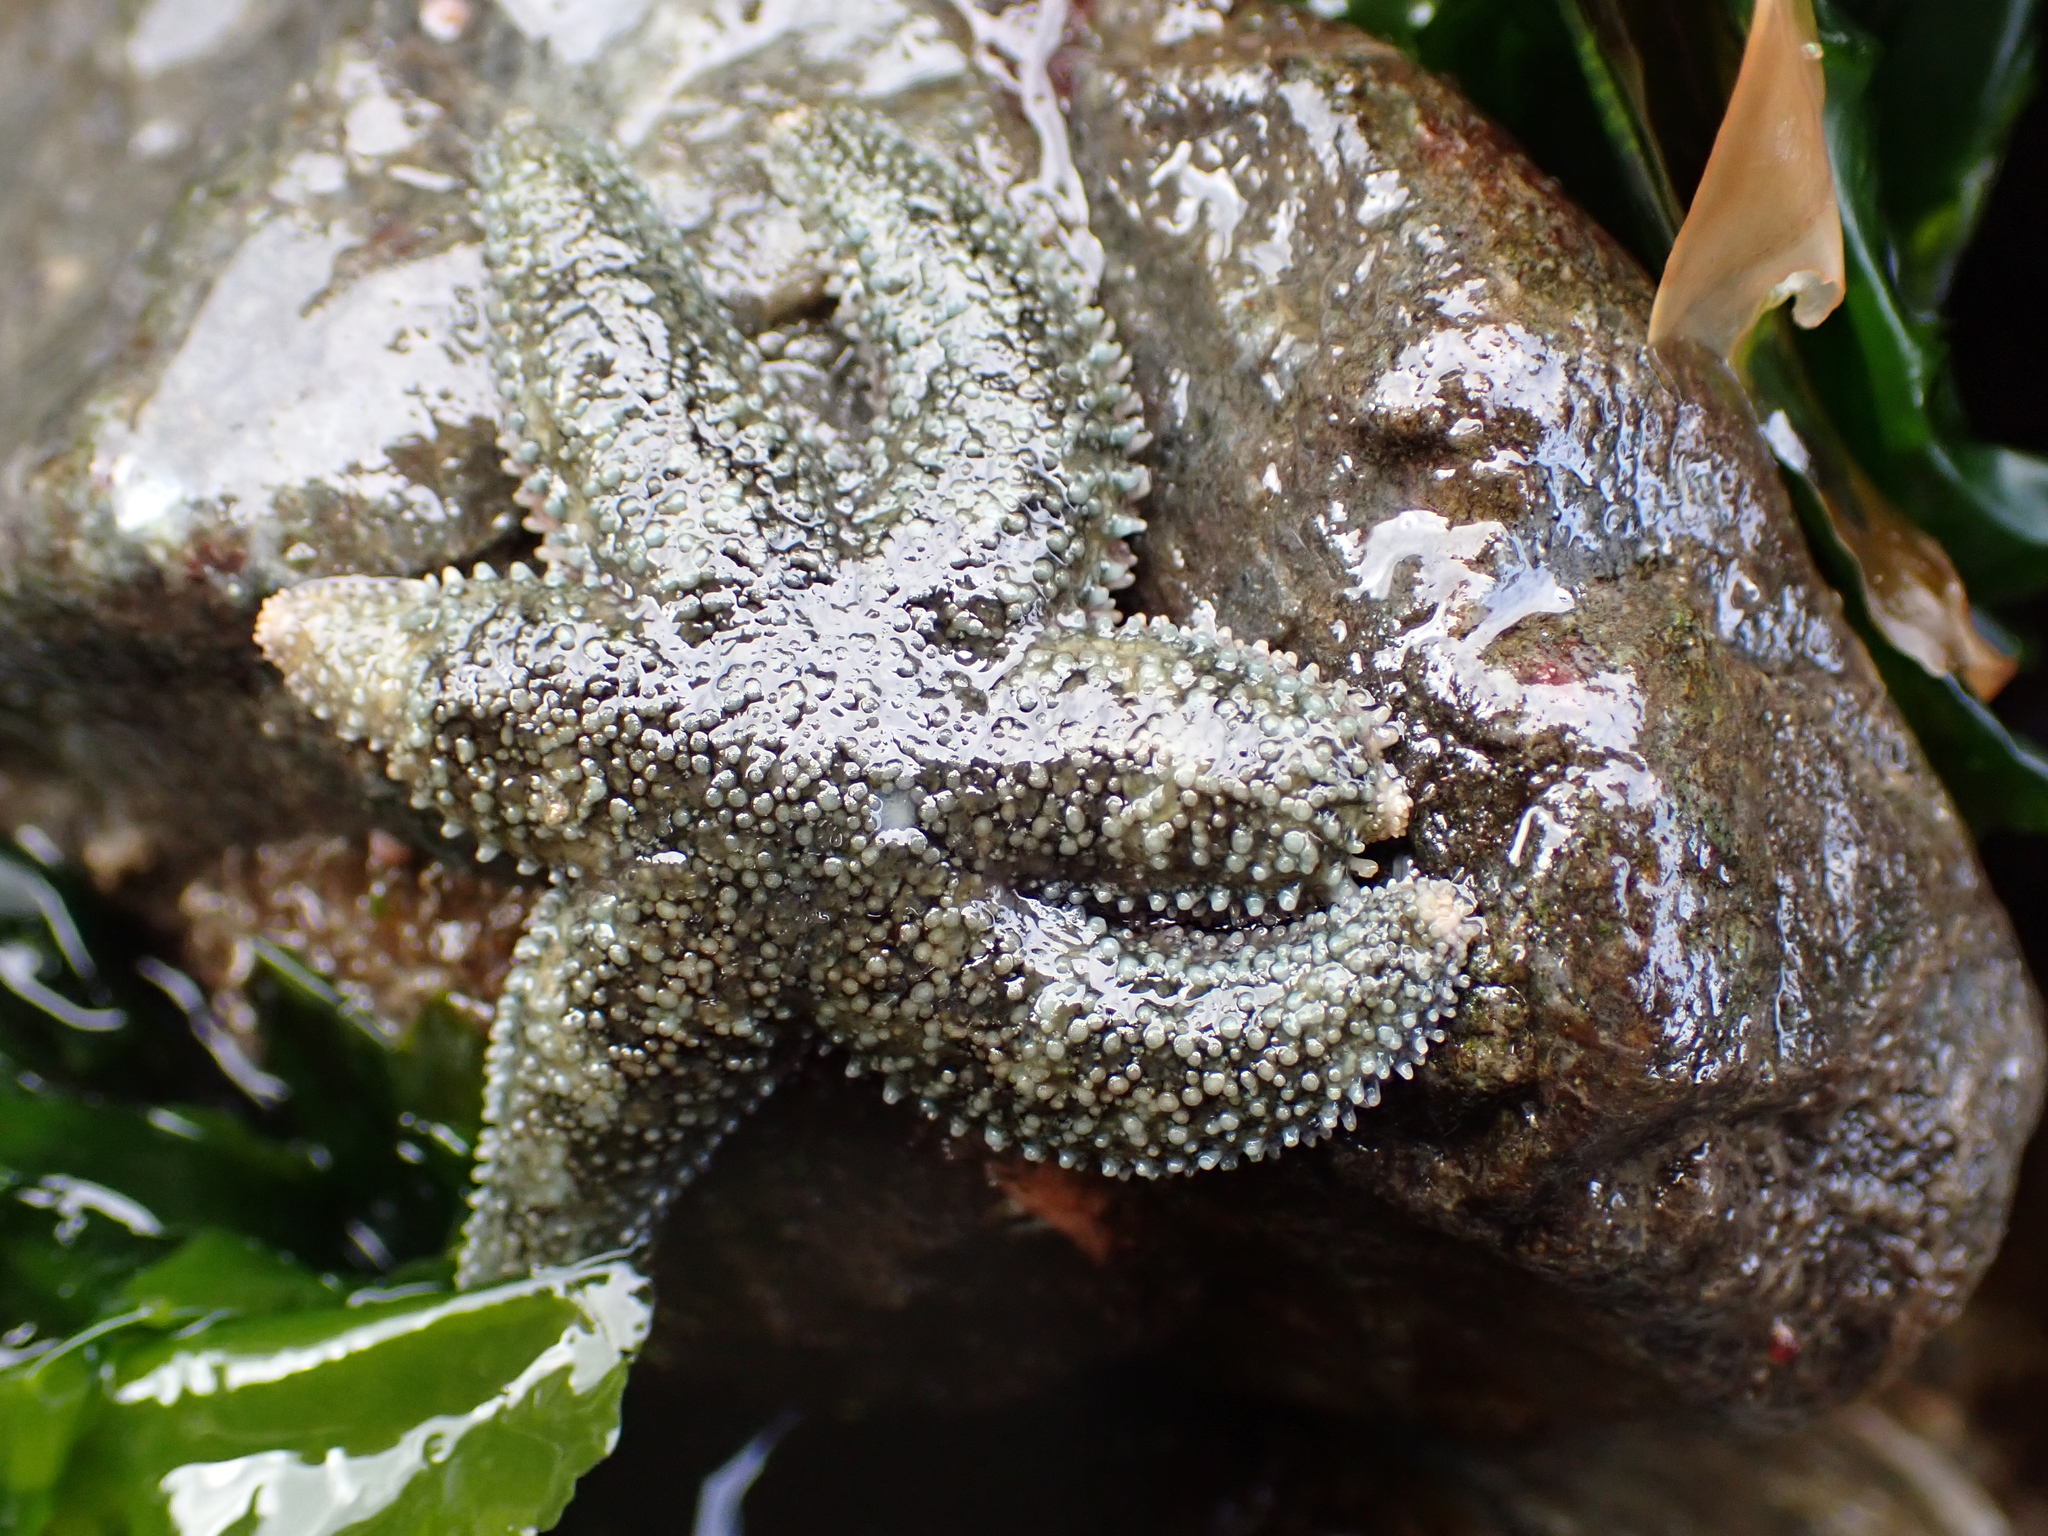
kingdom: Animalia
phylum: Echinodermata
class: Asteroidea
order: Forcipulatida
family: Asteriidae
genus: Leptasterias
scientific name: Leptasterias hexactis
